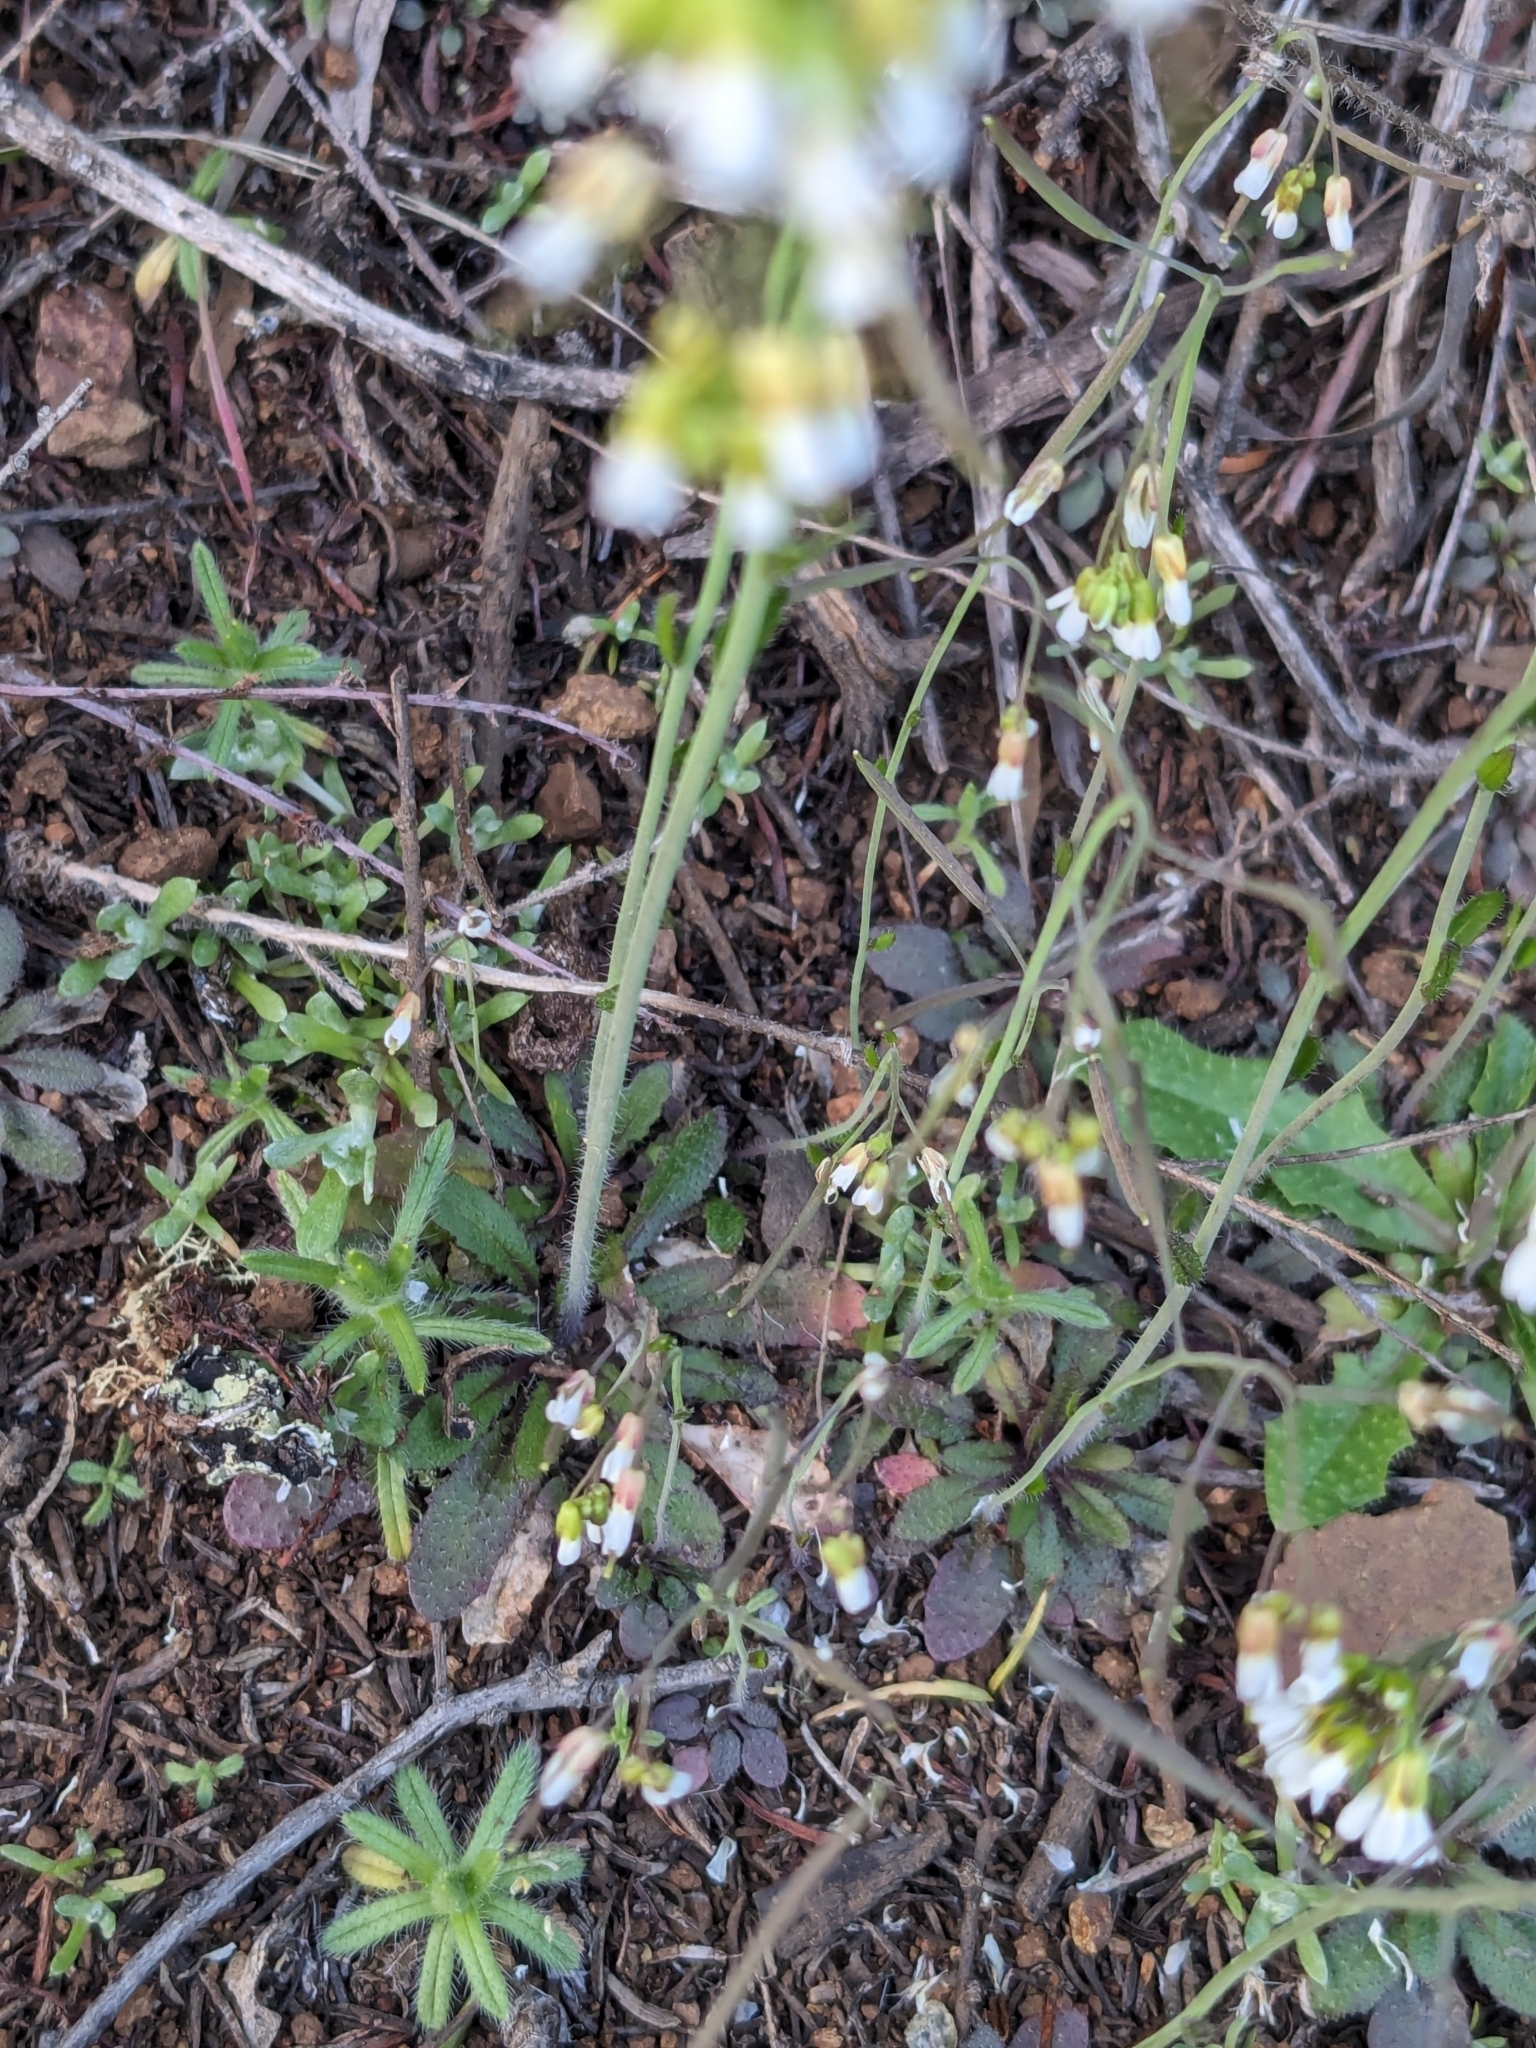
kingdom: Plantae
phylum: Tracheophyta
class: Magnoliopsida
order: Brassicales
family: Brassicaceae
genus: Arabidopsis
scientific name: Arabidopsis thaliana
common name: Thale cress
